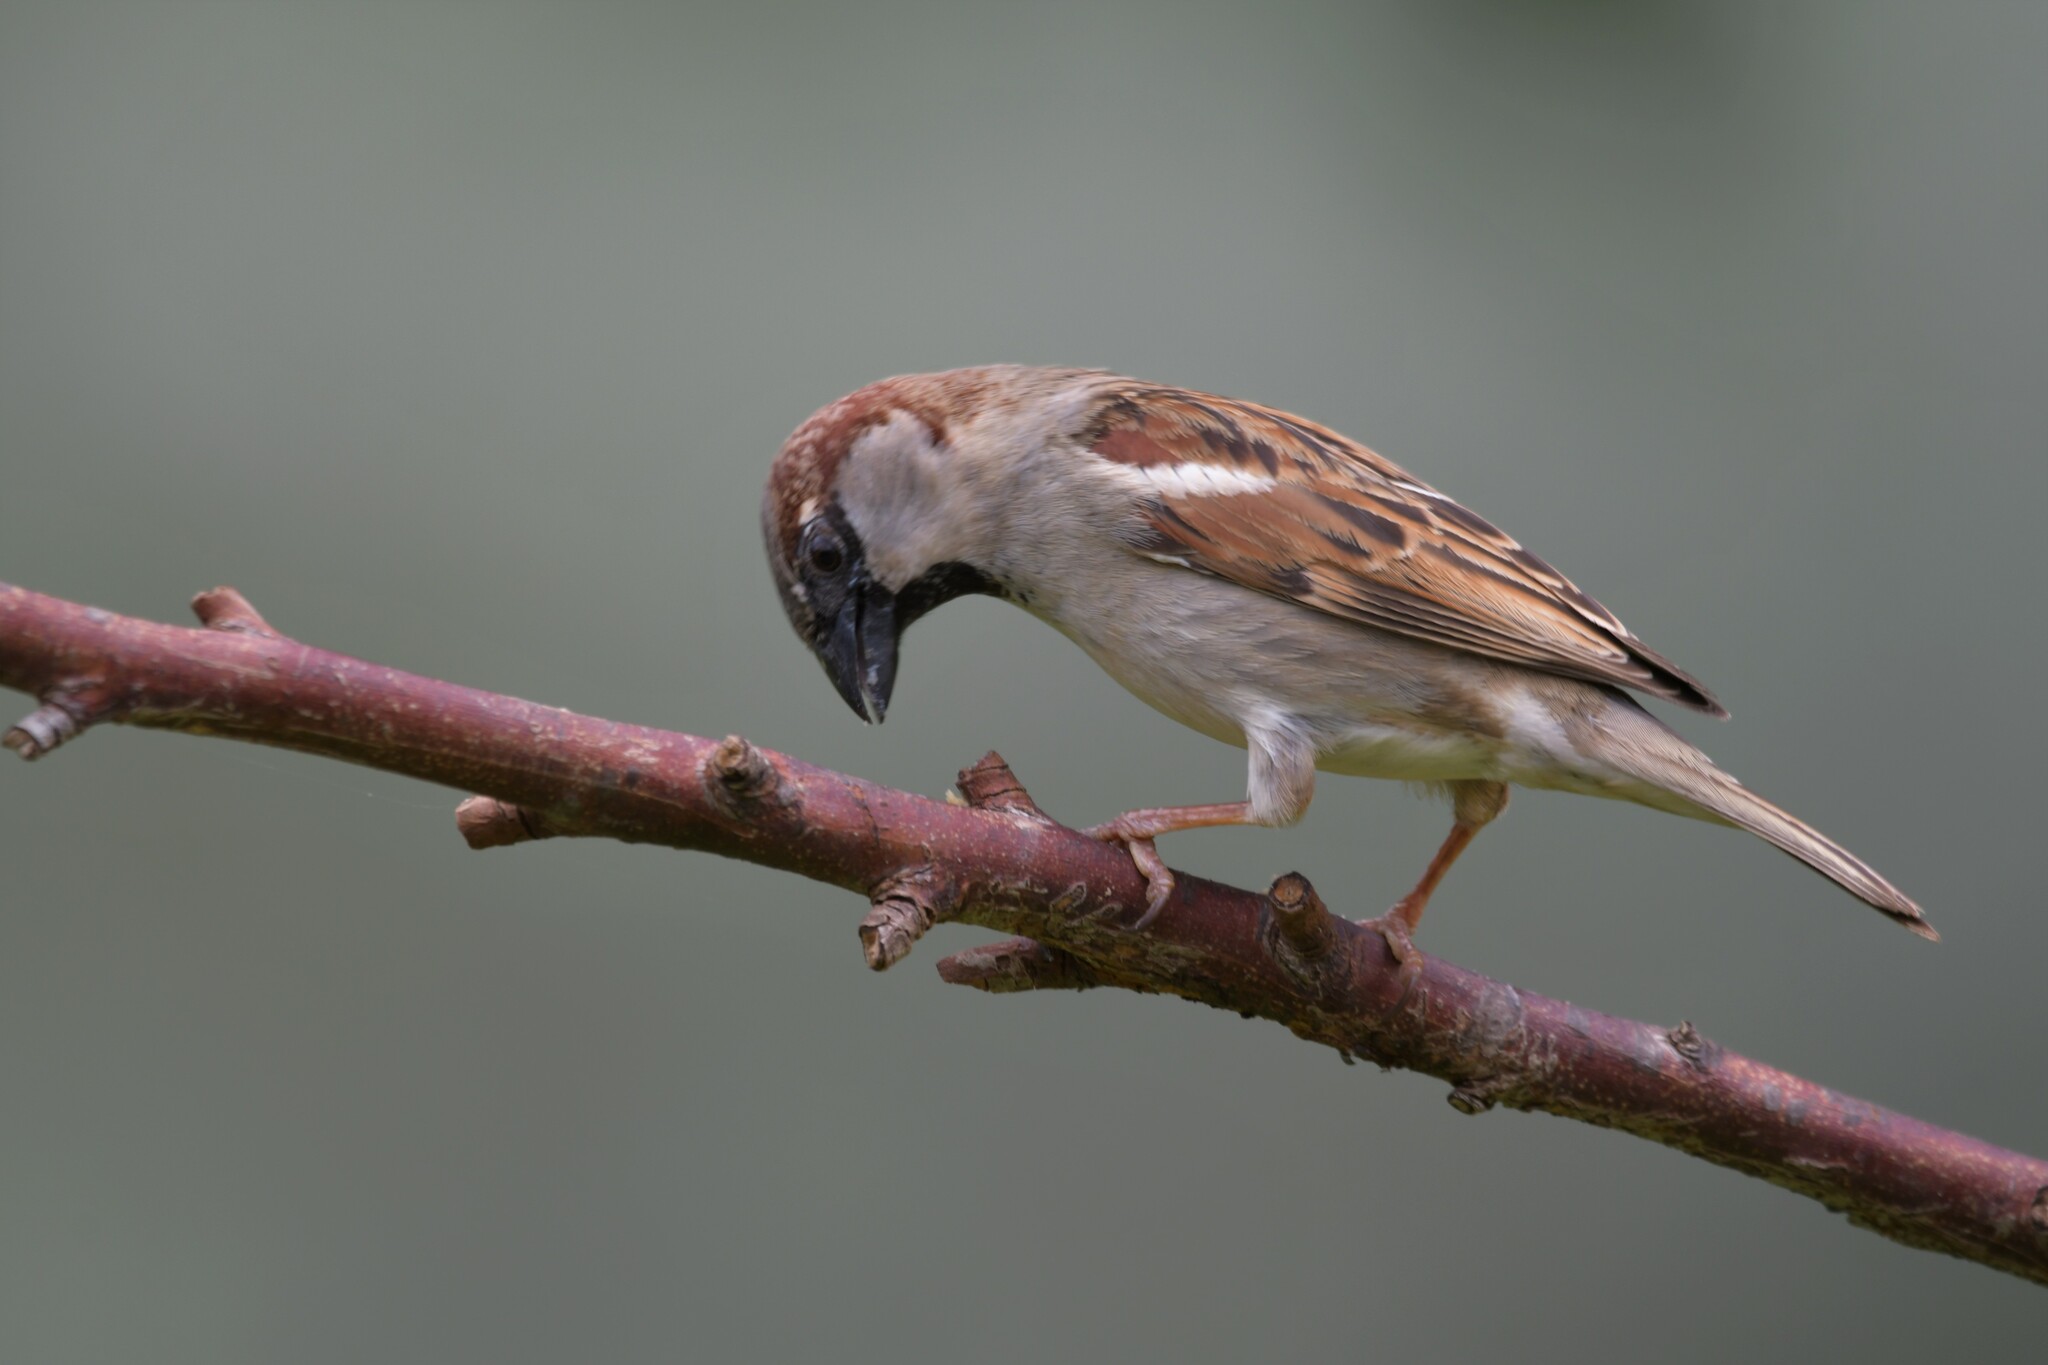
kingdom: Animalia
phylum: Chordata
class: Aves
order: Passeriformes
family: Passeridae
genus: Passer
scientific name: Passer domesticus
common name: House sparrow
